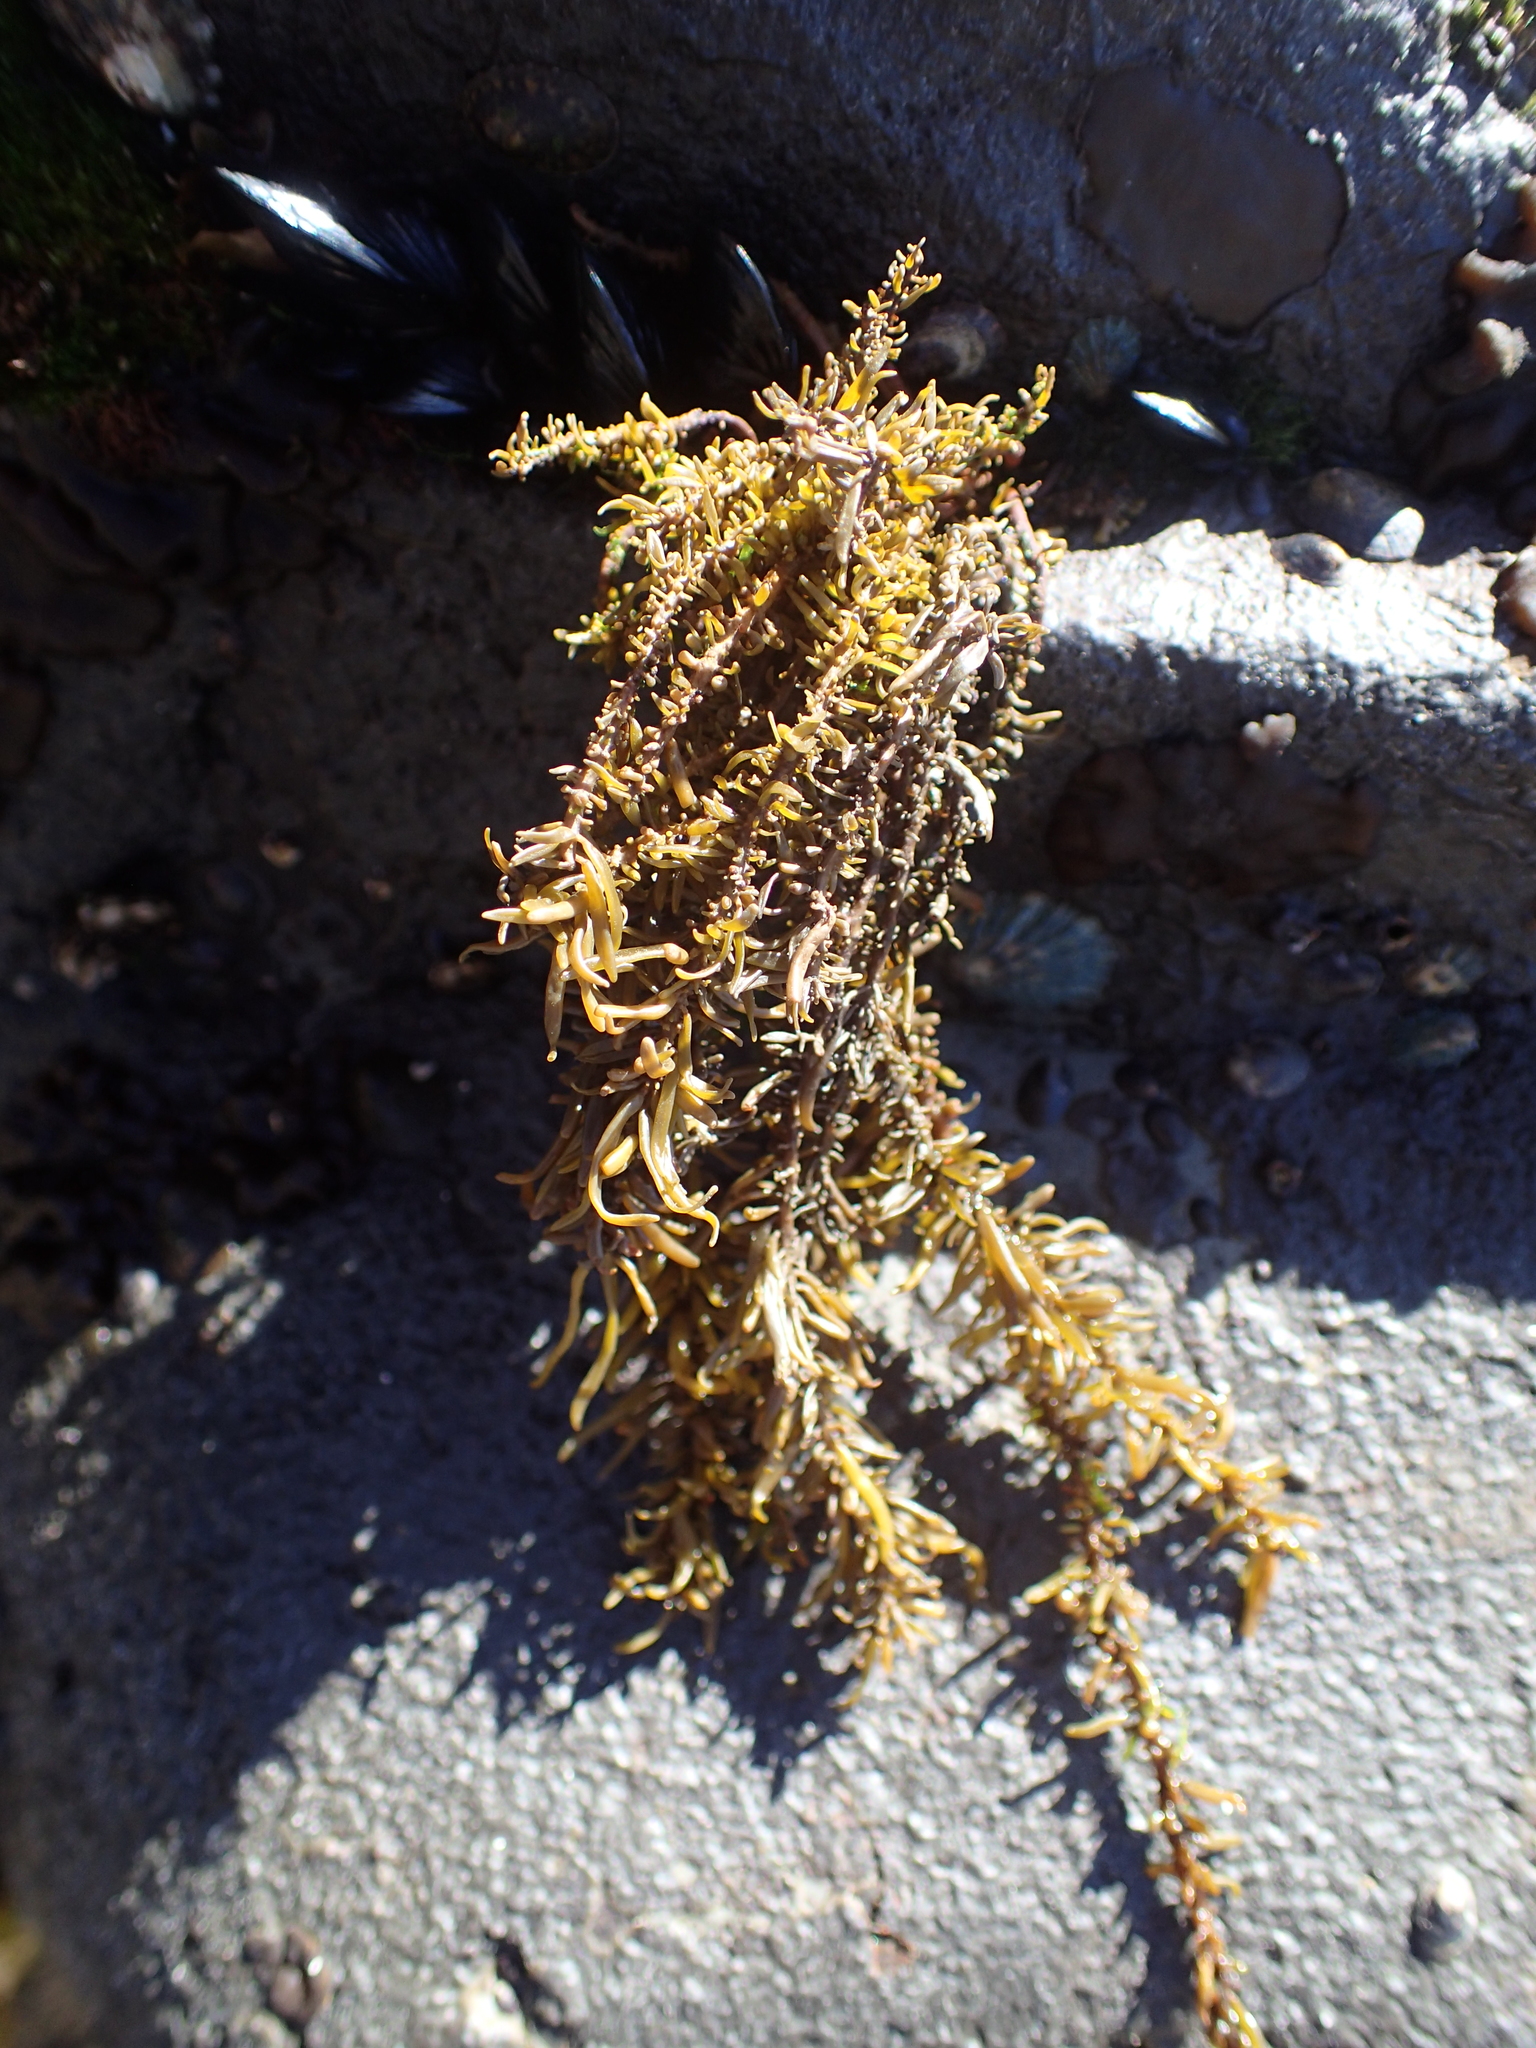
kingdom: Chromista
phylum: Ochrophyta
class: Phaeophyceae
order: Scytosiphonales
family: Scytosiphonaceae
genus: Analipus
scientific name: Analipus japonicus
